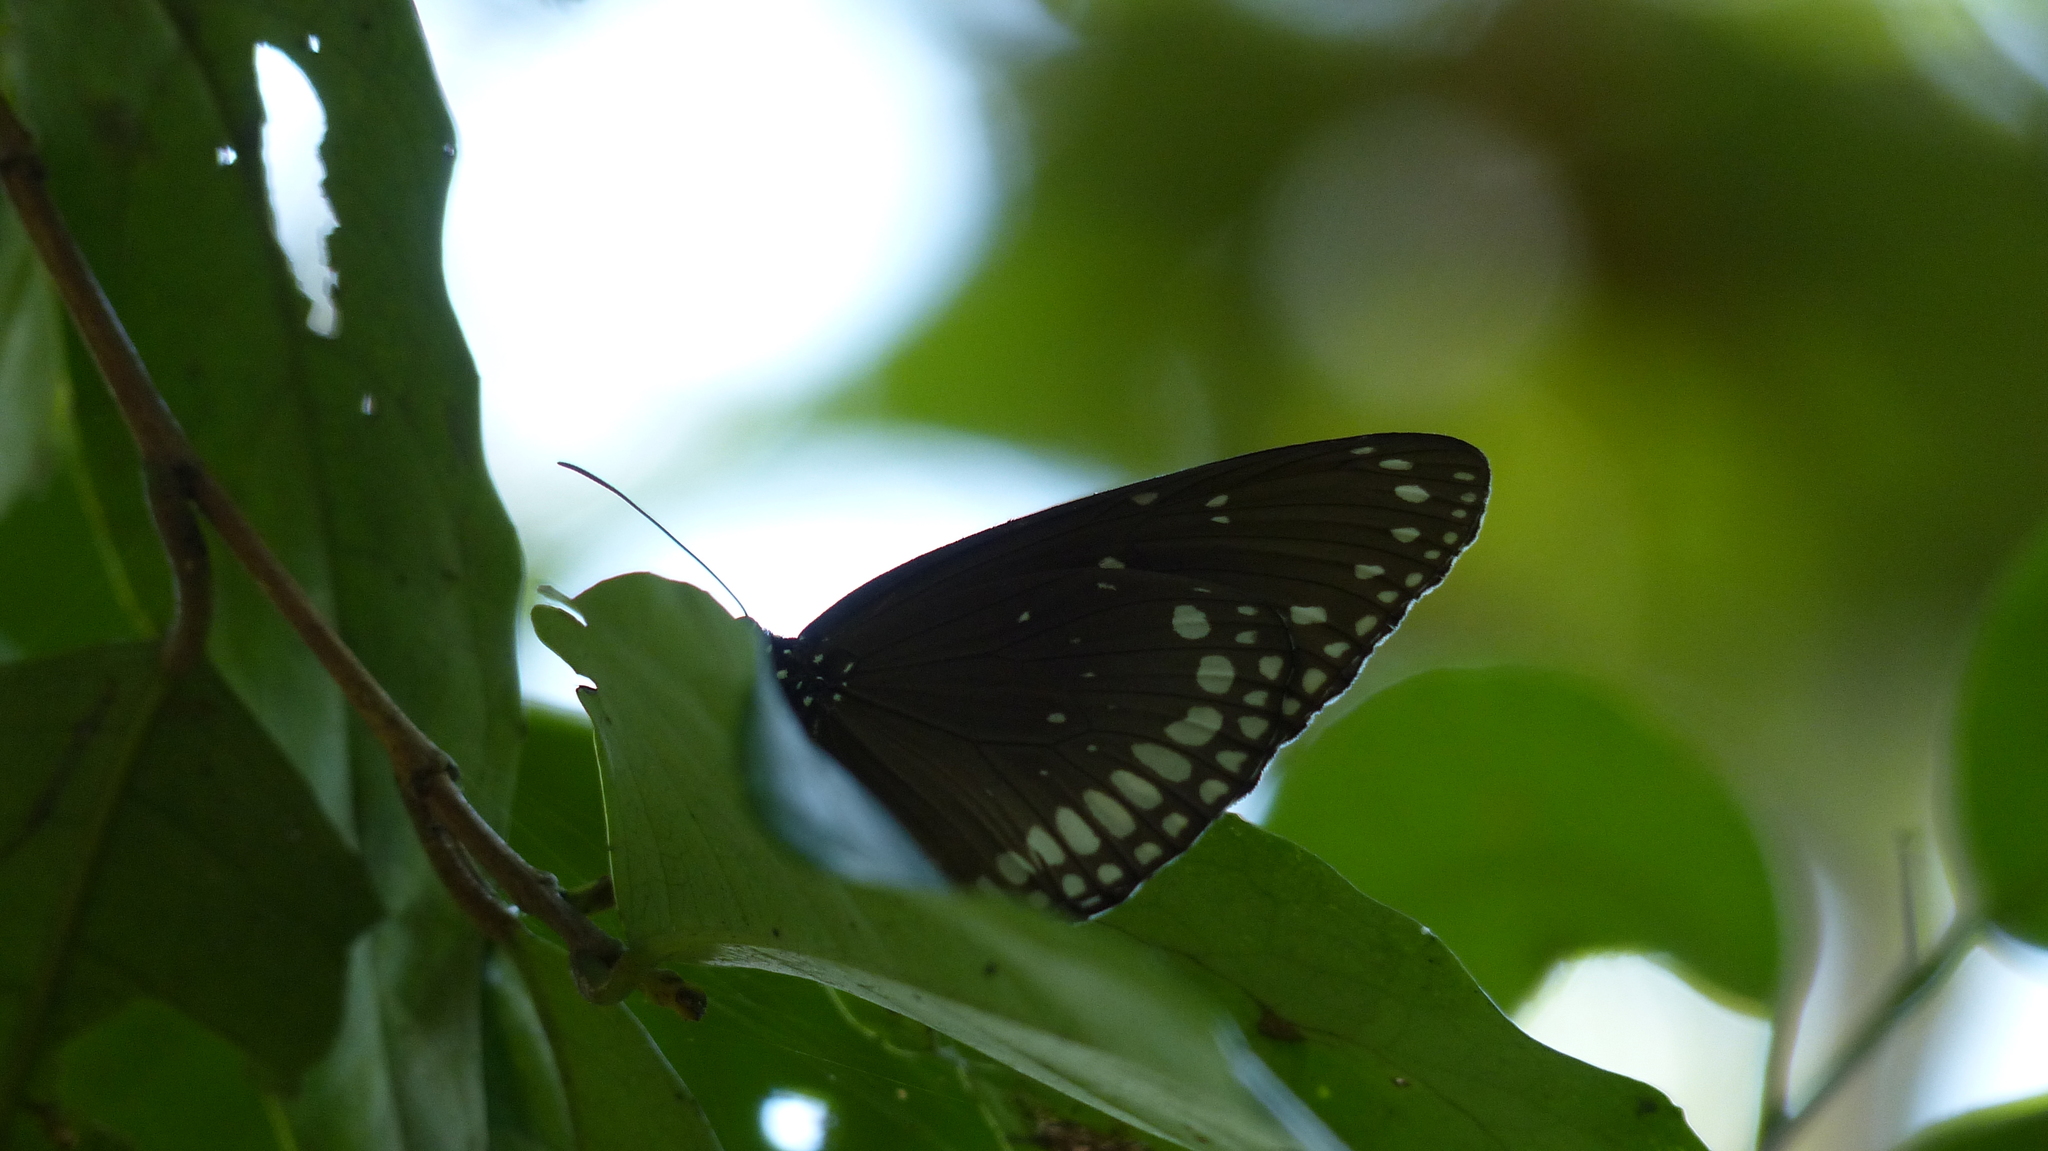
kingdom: Animalia
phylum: Arthropoda
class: Insecta
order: Lepidoptera
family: Nymphalidae
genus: Euploea
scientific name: Euploea sylvester
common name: Double-branded crow butterfly
